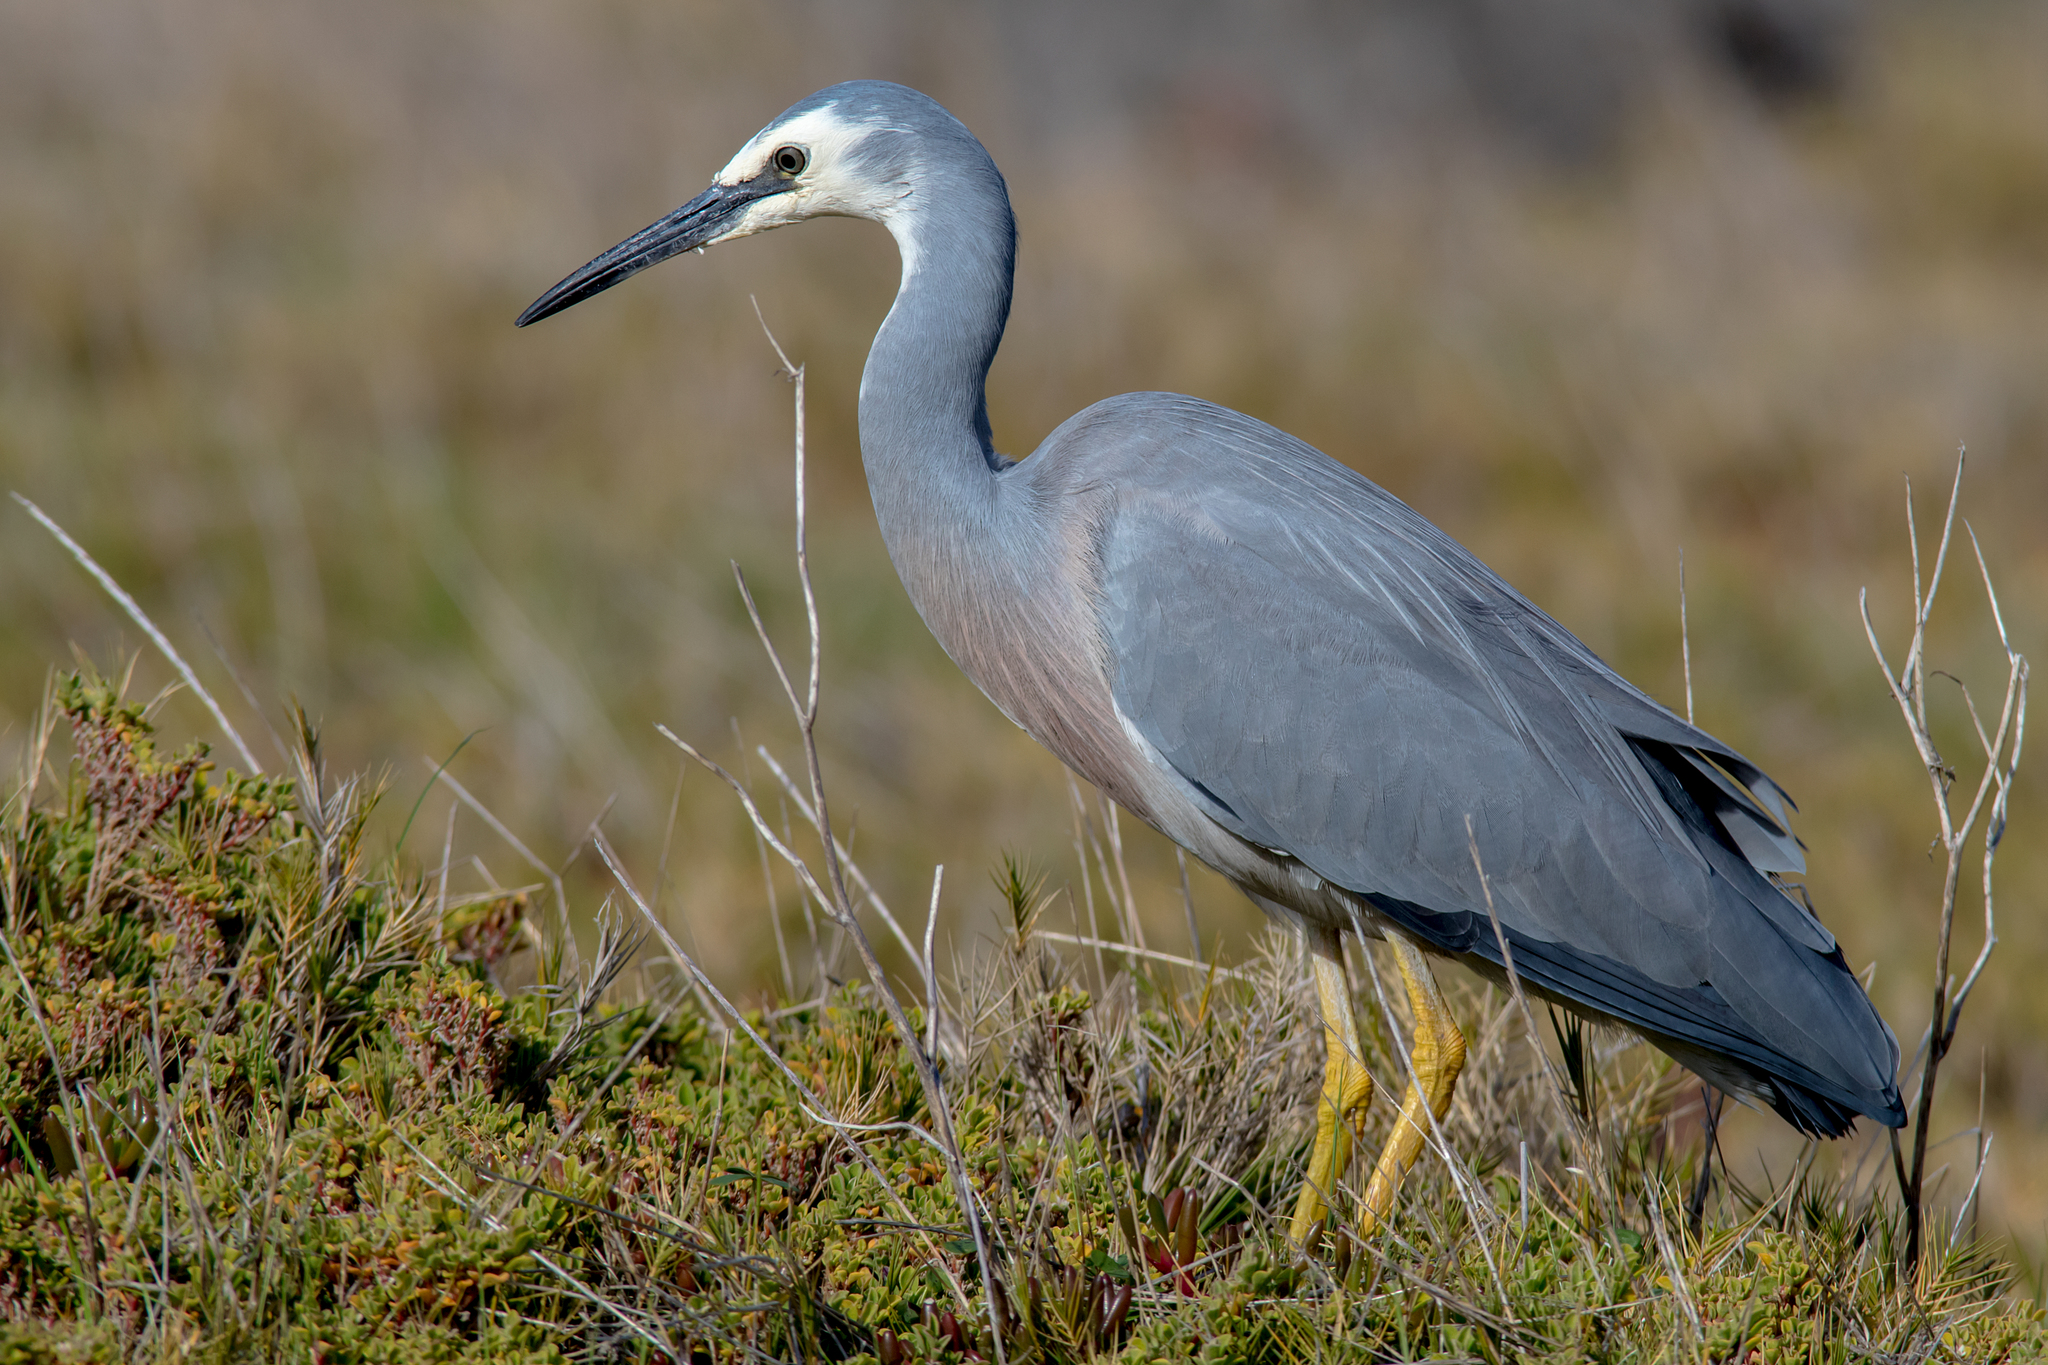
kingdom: Animalia
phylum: Chordata
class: Aves
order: Pelecaniformes
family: Ardeidae
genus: Egretta
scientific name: Egretta novaehollandiae
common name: White-faced heron
